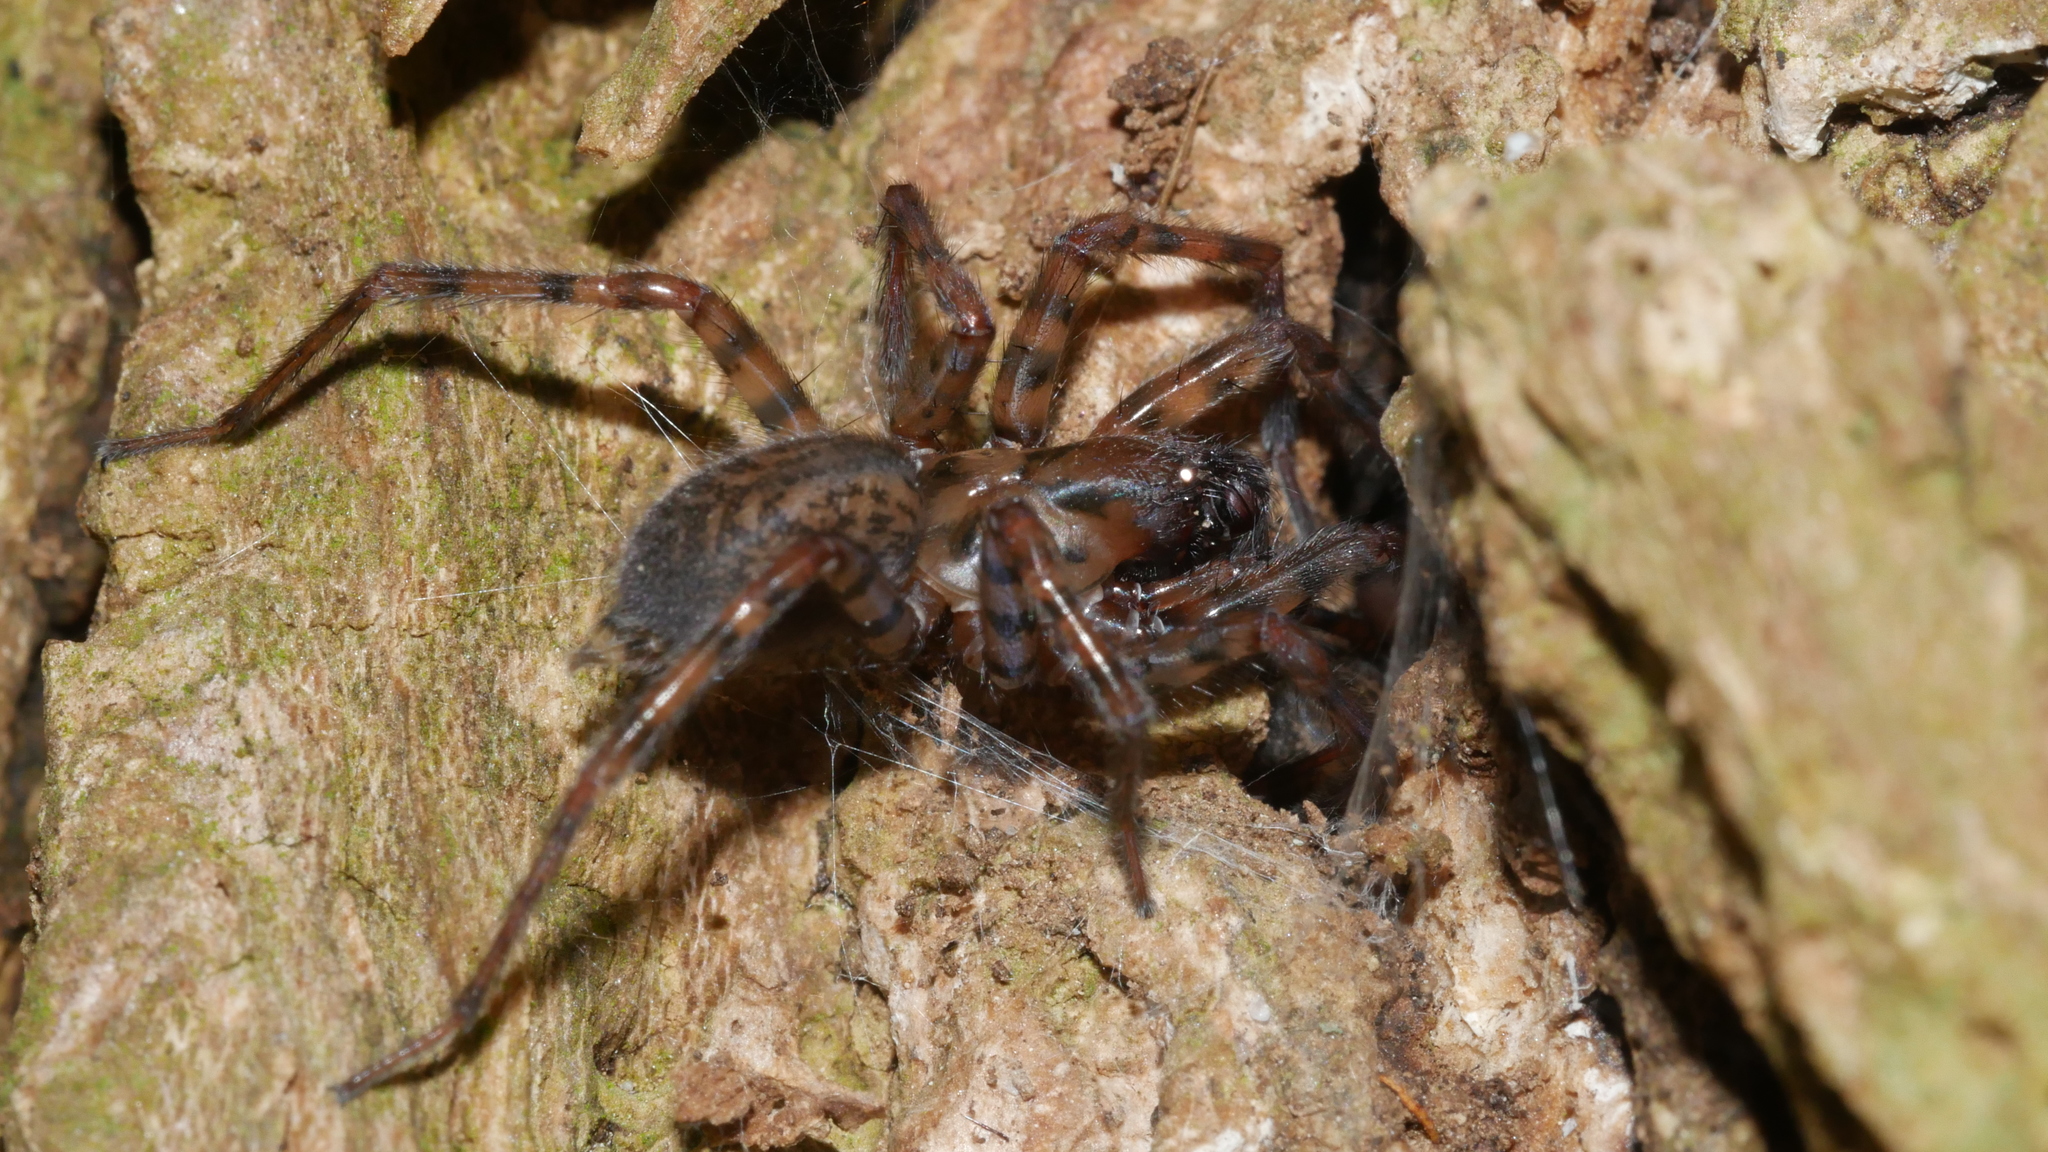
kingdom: Animalia
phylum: Arthropoda
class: Arachnida
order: Araneae
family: Agelenidae
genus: Coras
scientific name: Coras
